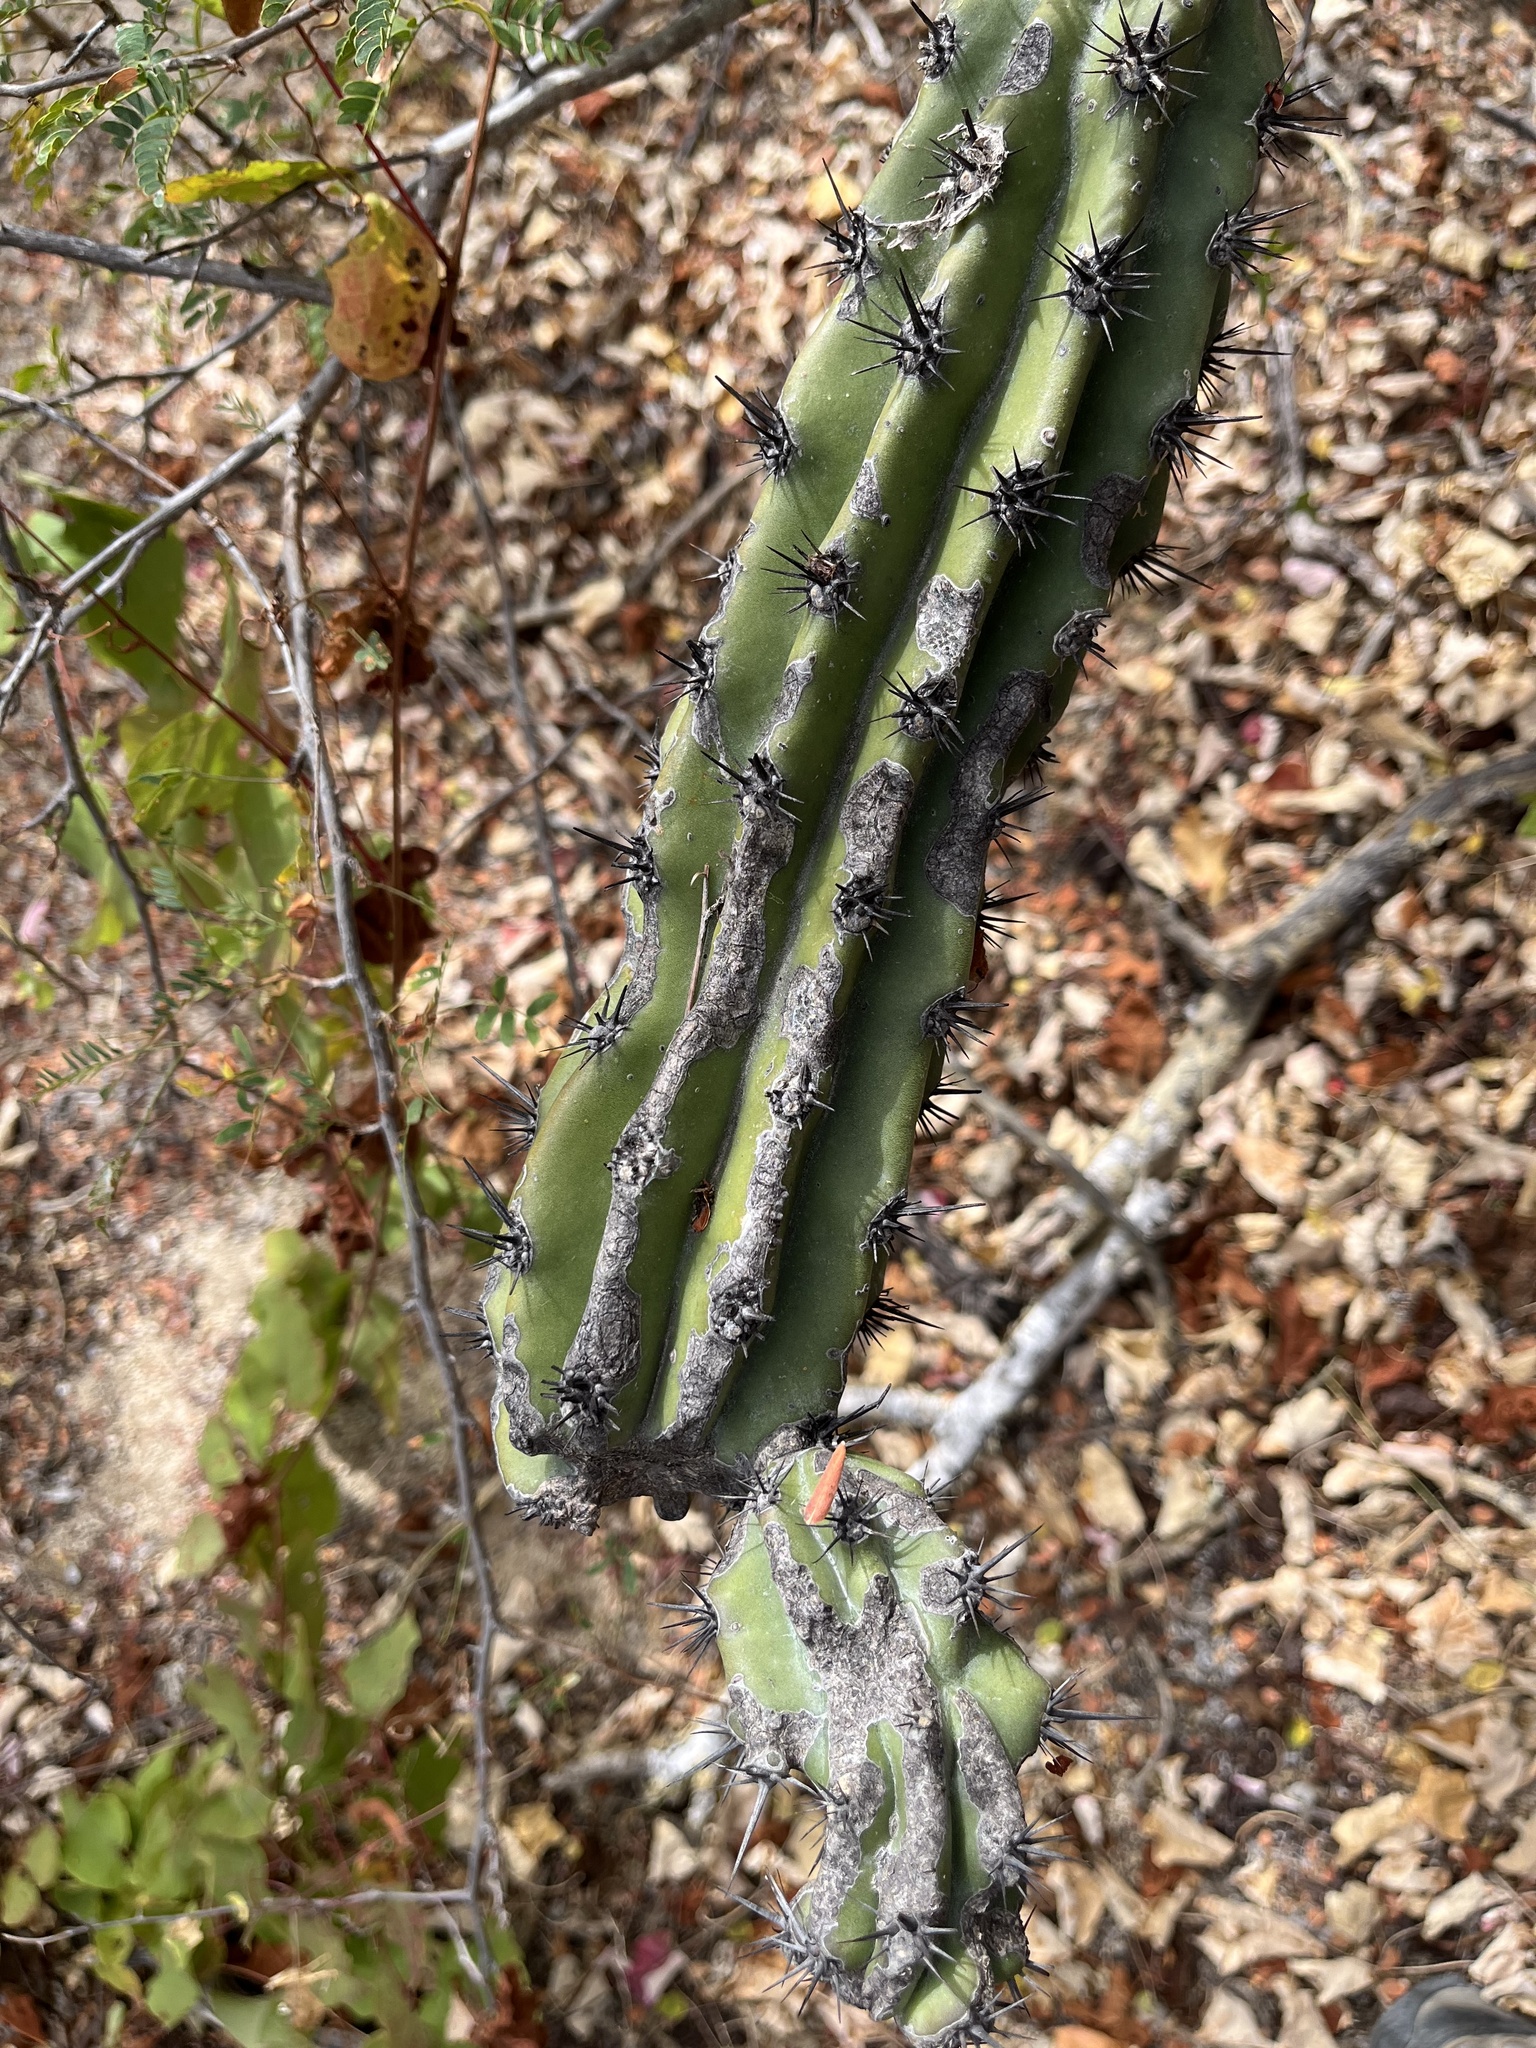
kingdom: Plantae
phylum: Tracheophyta
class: Magnoliopsida
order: Caryophyllales
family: Cactaceae
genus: Stenocereus
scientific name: Stenocereus gummosus
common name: Dagger cactus
